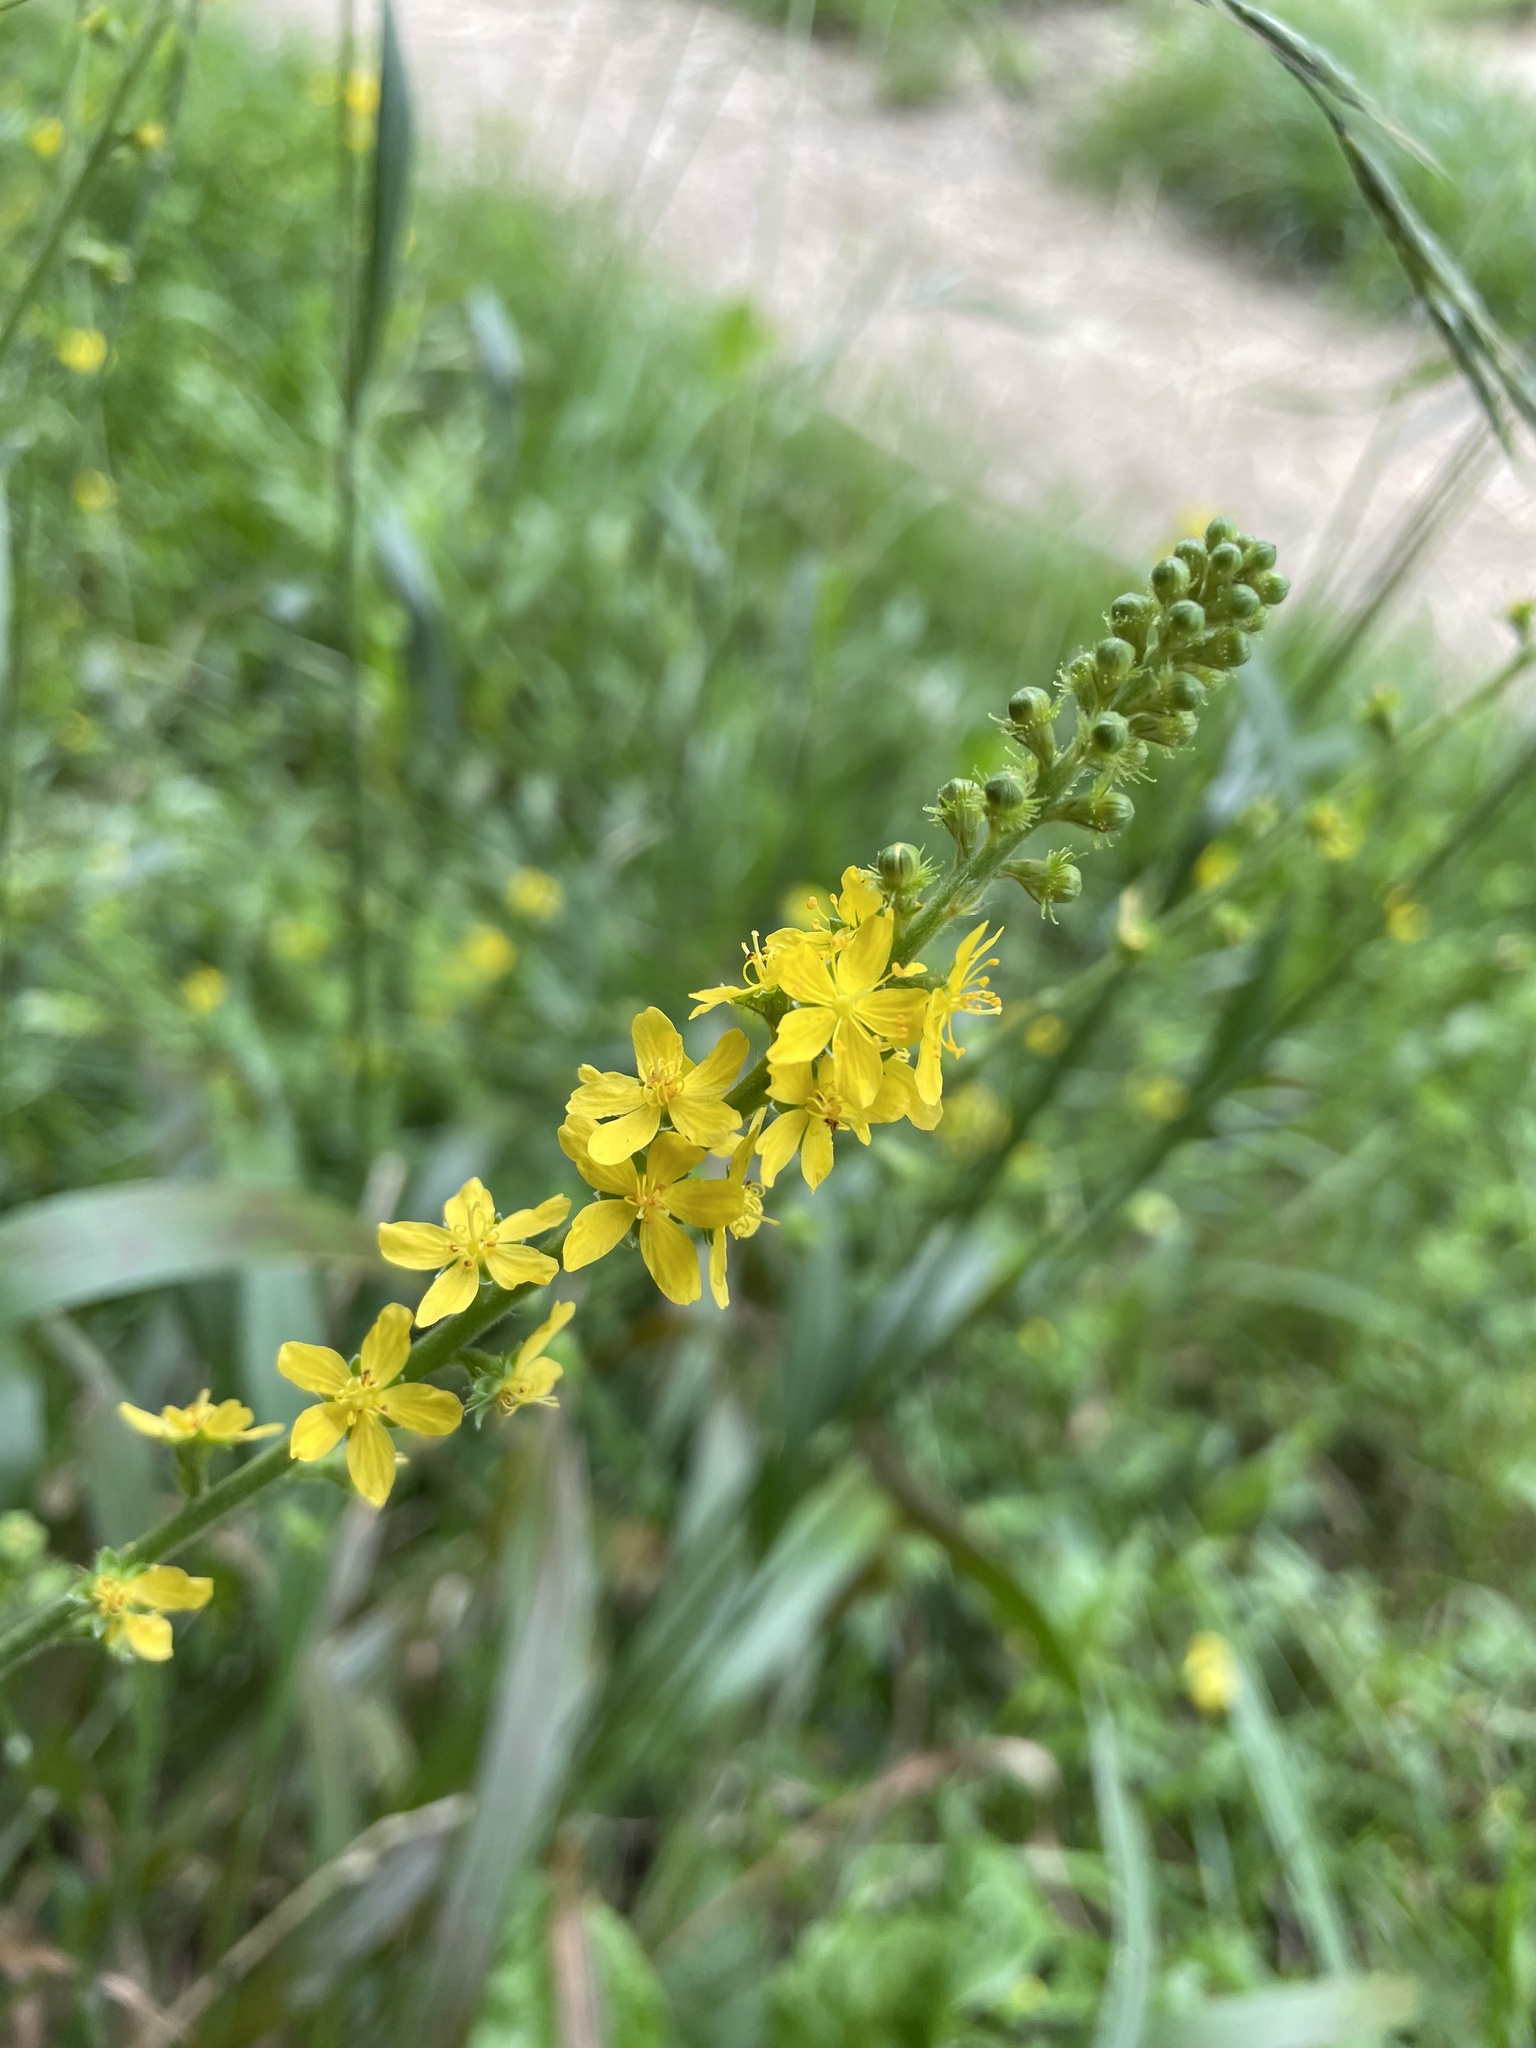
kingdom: Plantae
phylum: Tracheophyta
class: Magnoliopsida
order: Rosales
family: Rosaceae
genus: Agrimonia
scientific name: Agrimonia eupatoria
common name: Agrimony
